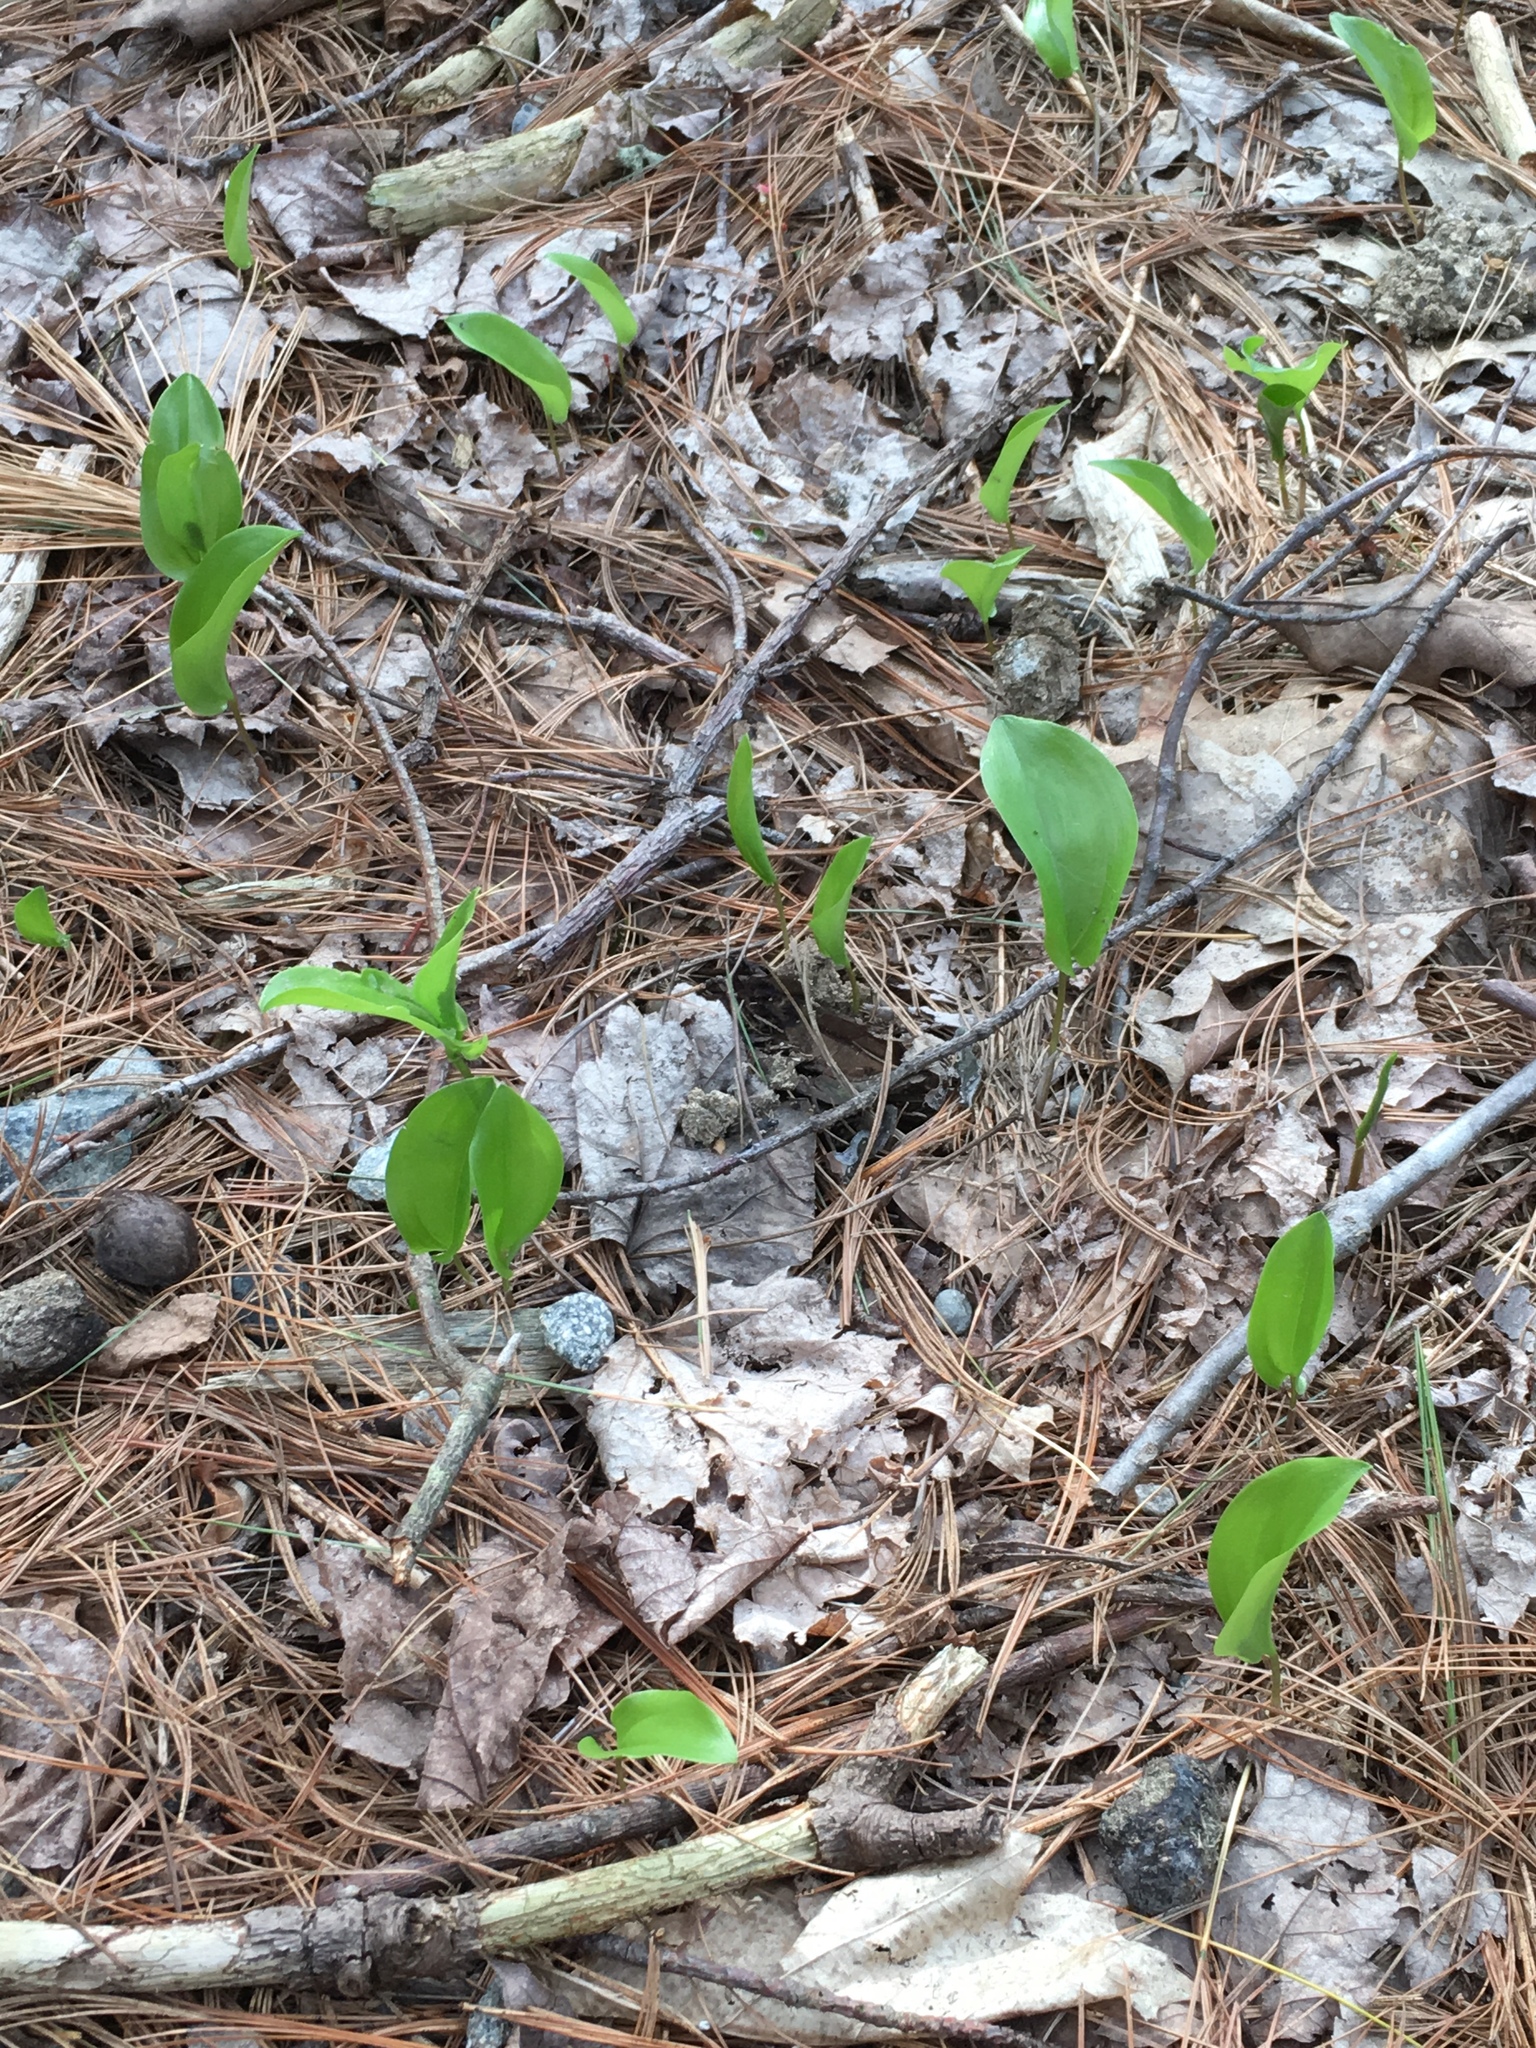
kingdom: Plantae
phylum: Tracheophyta
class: Liliopsida
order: Asparagales
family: Asparagaceae
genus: Maianthemum
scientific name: Maianthemum canadense
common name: False lily-of-the-valley
